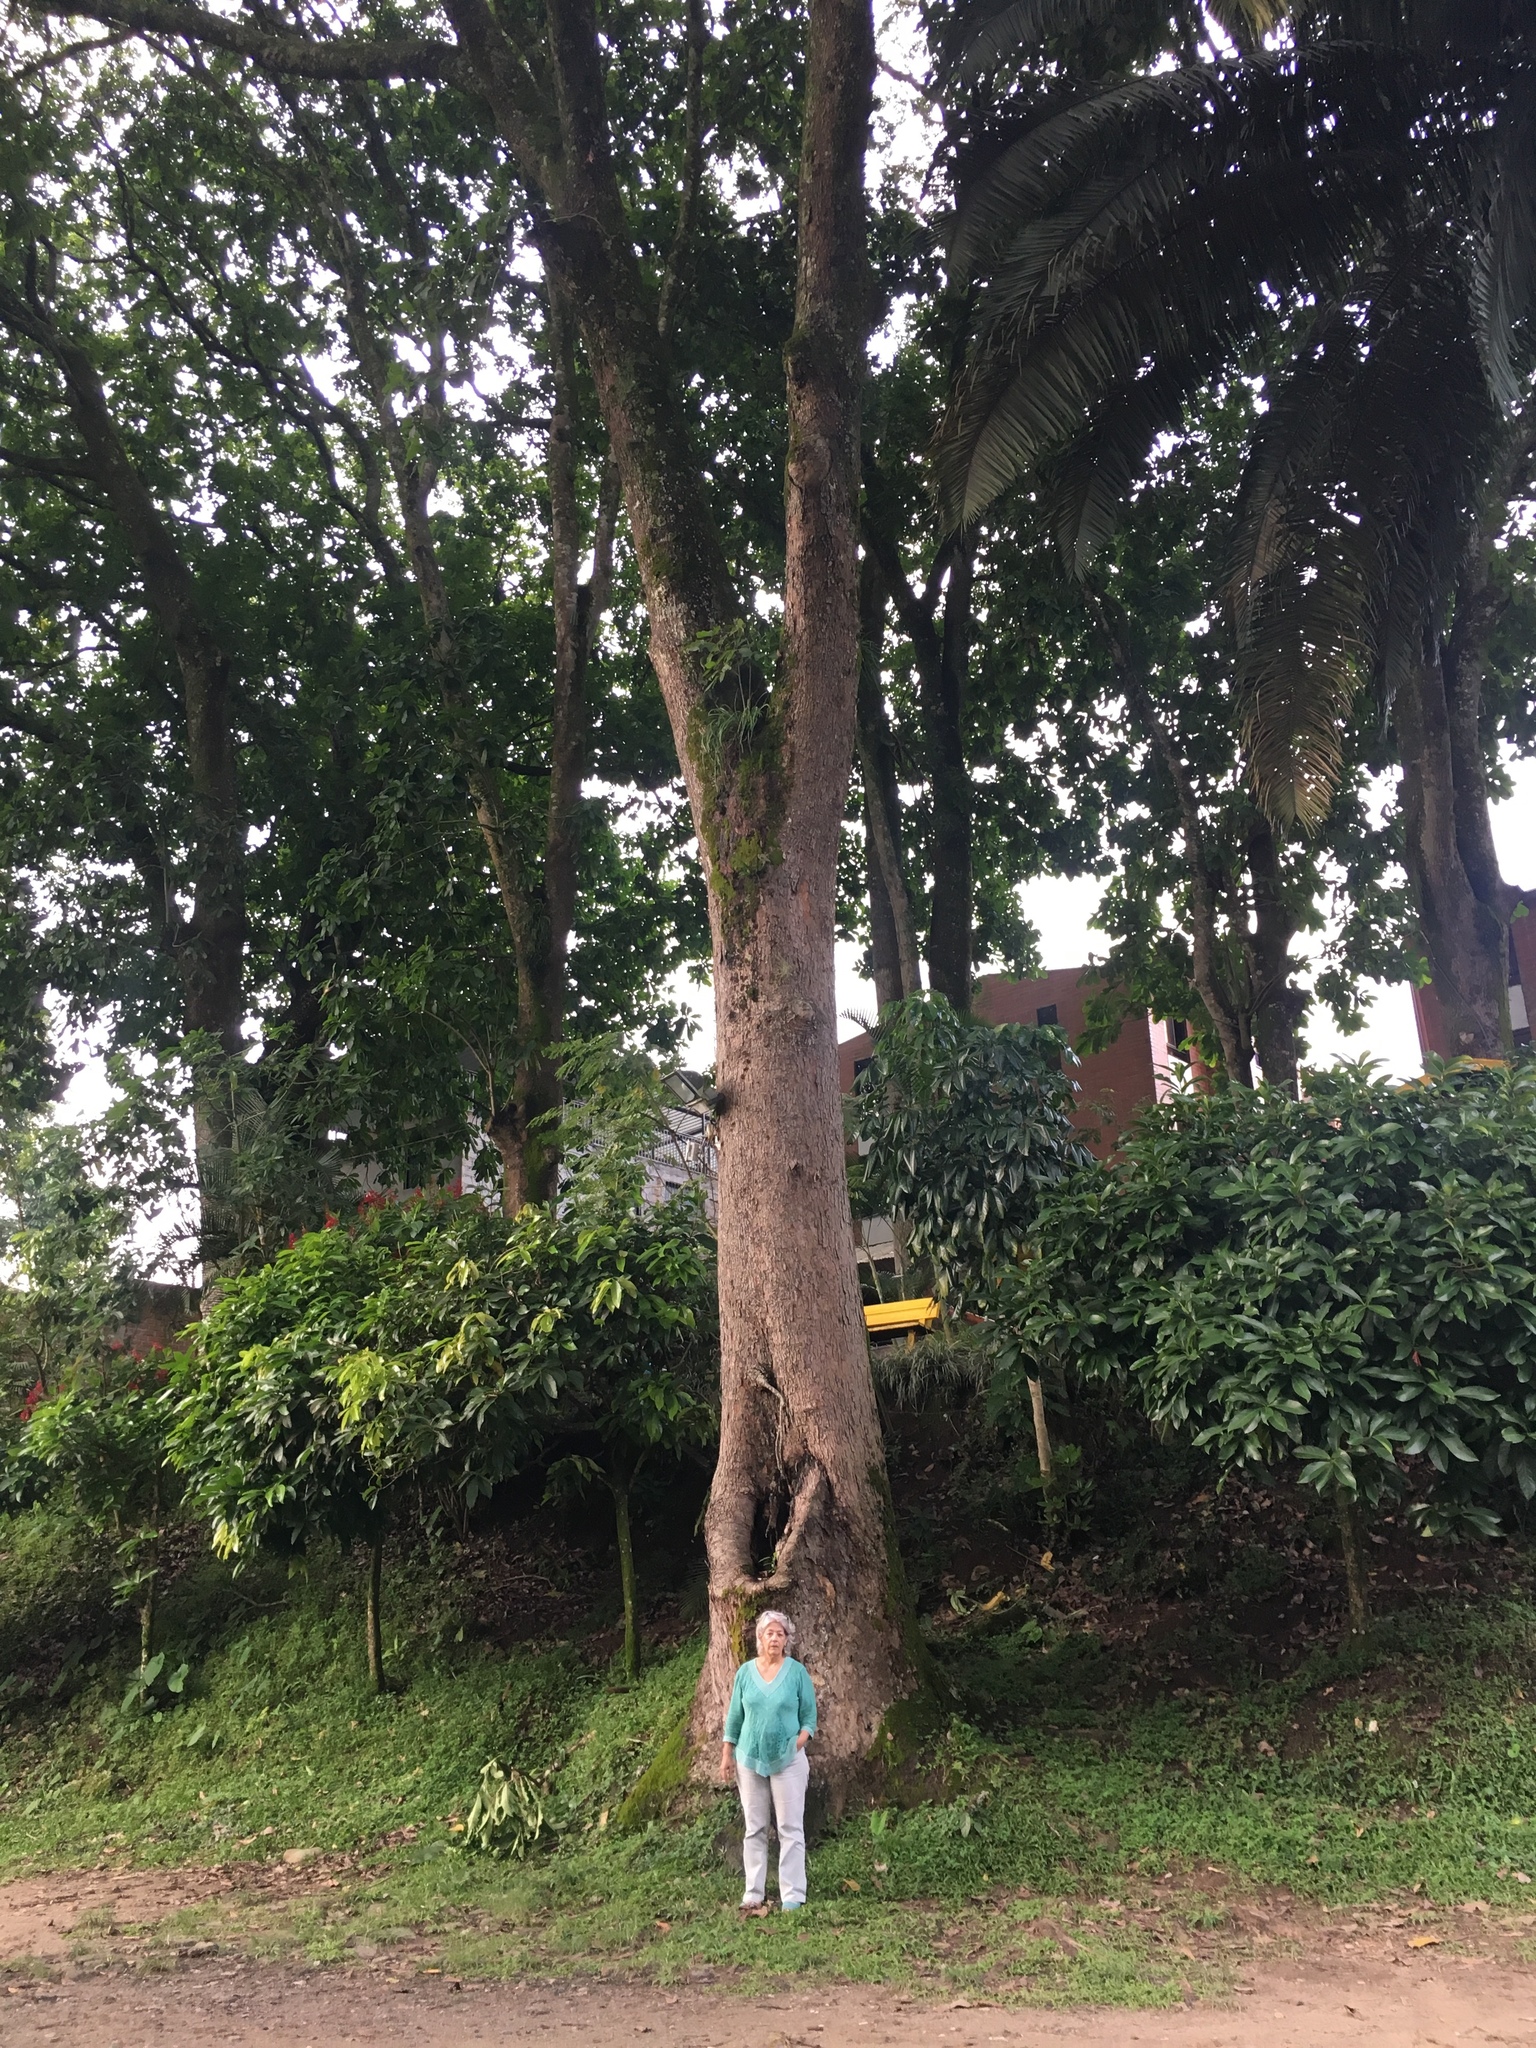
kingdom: Plantae
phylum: Tracheophyta
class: Magnoliopsida
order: Sapindales
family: Anacardiaceae
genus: Anacardium
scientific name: Anacardium excelsum
